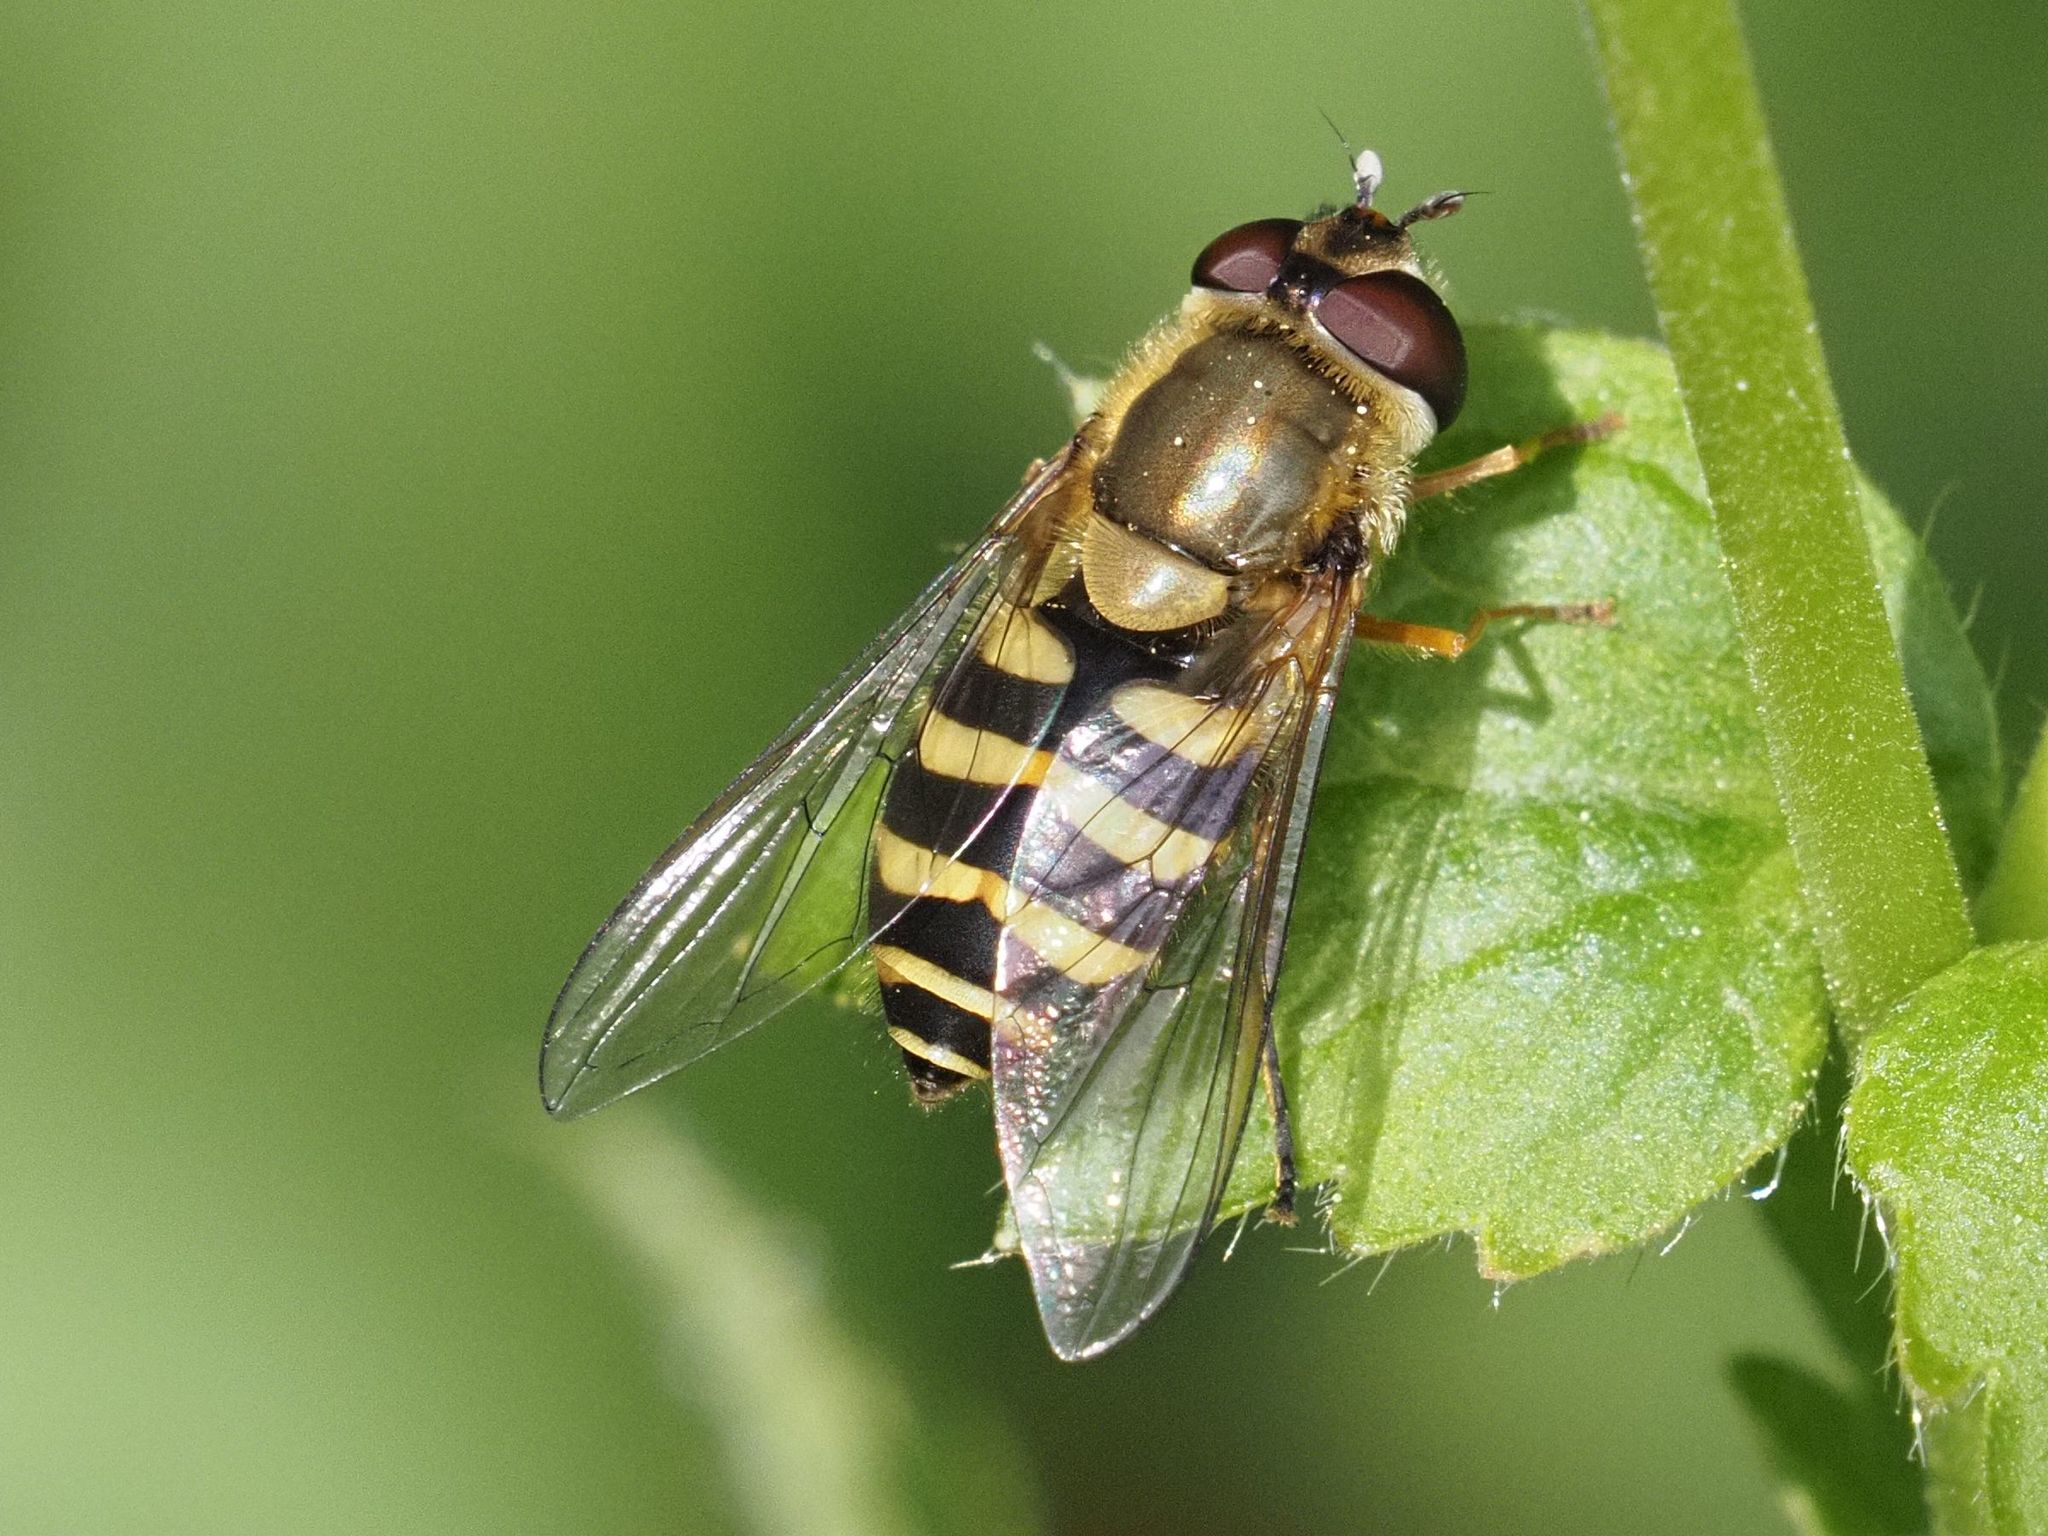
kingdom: Animalia
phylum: Arthropoda
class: Insecta
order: Diptera
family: Syrphidae
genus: Syrphus
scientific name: Syrphus
